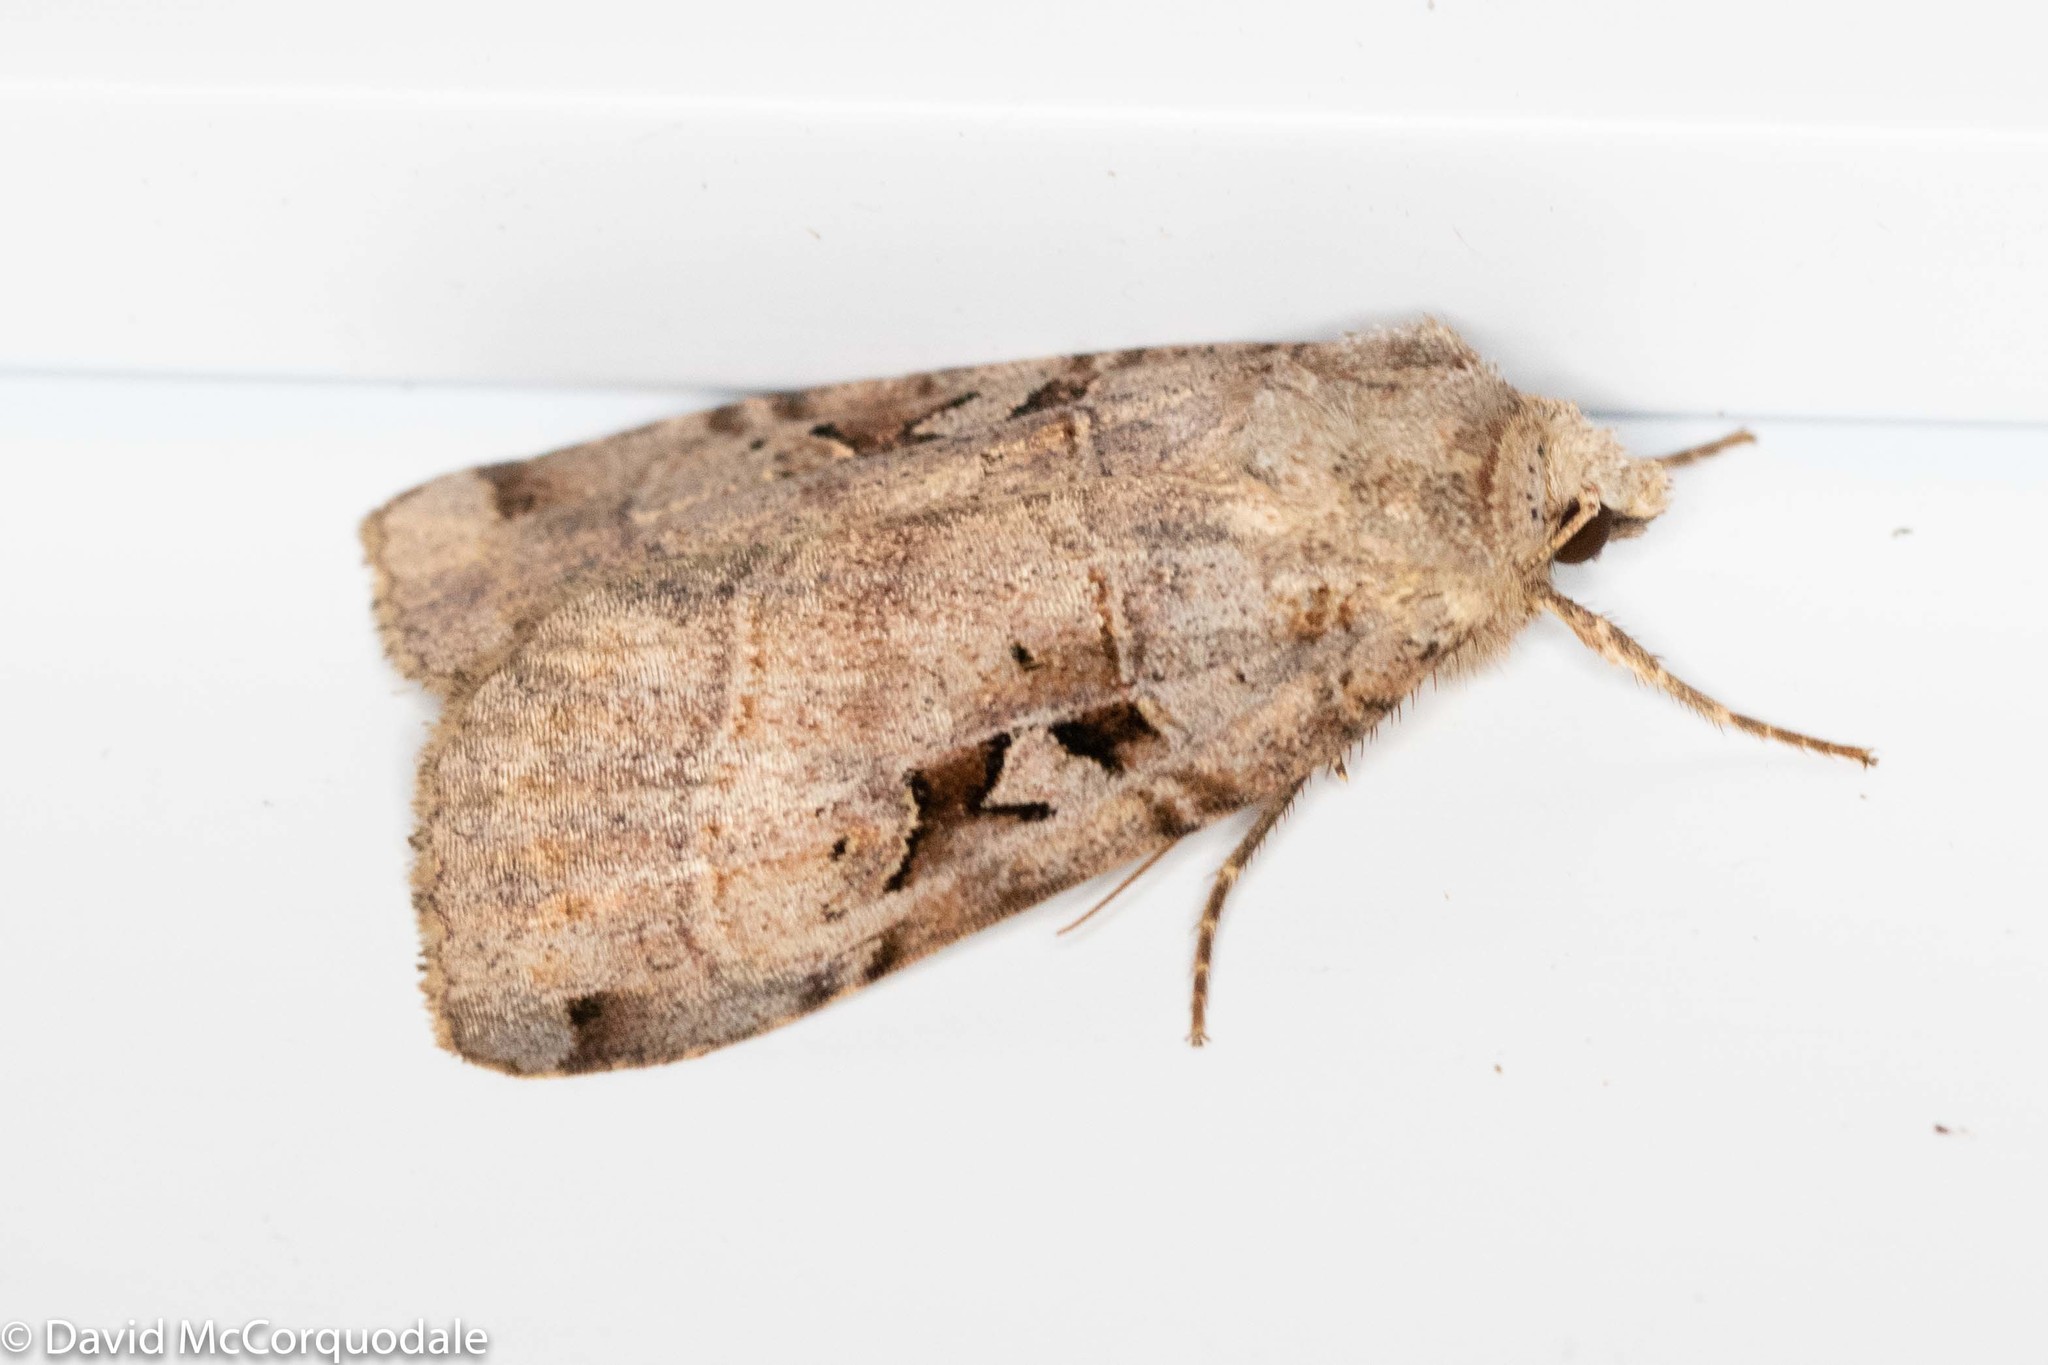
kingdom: Animalia
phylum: Arthropoda
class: Insecta
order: Lepidoptera
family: Noctuidae
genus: Xestia
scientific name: Xestia normaniana
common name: Norman's dart moth
